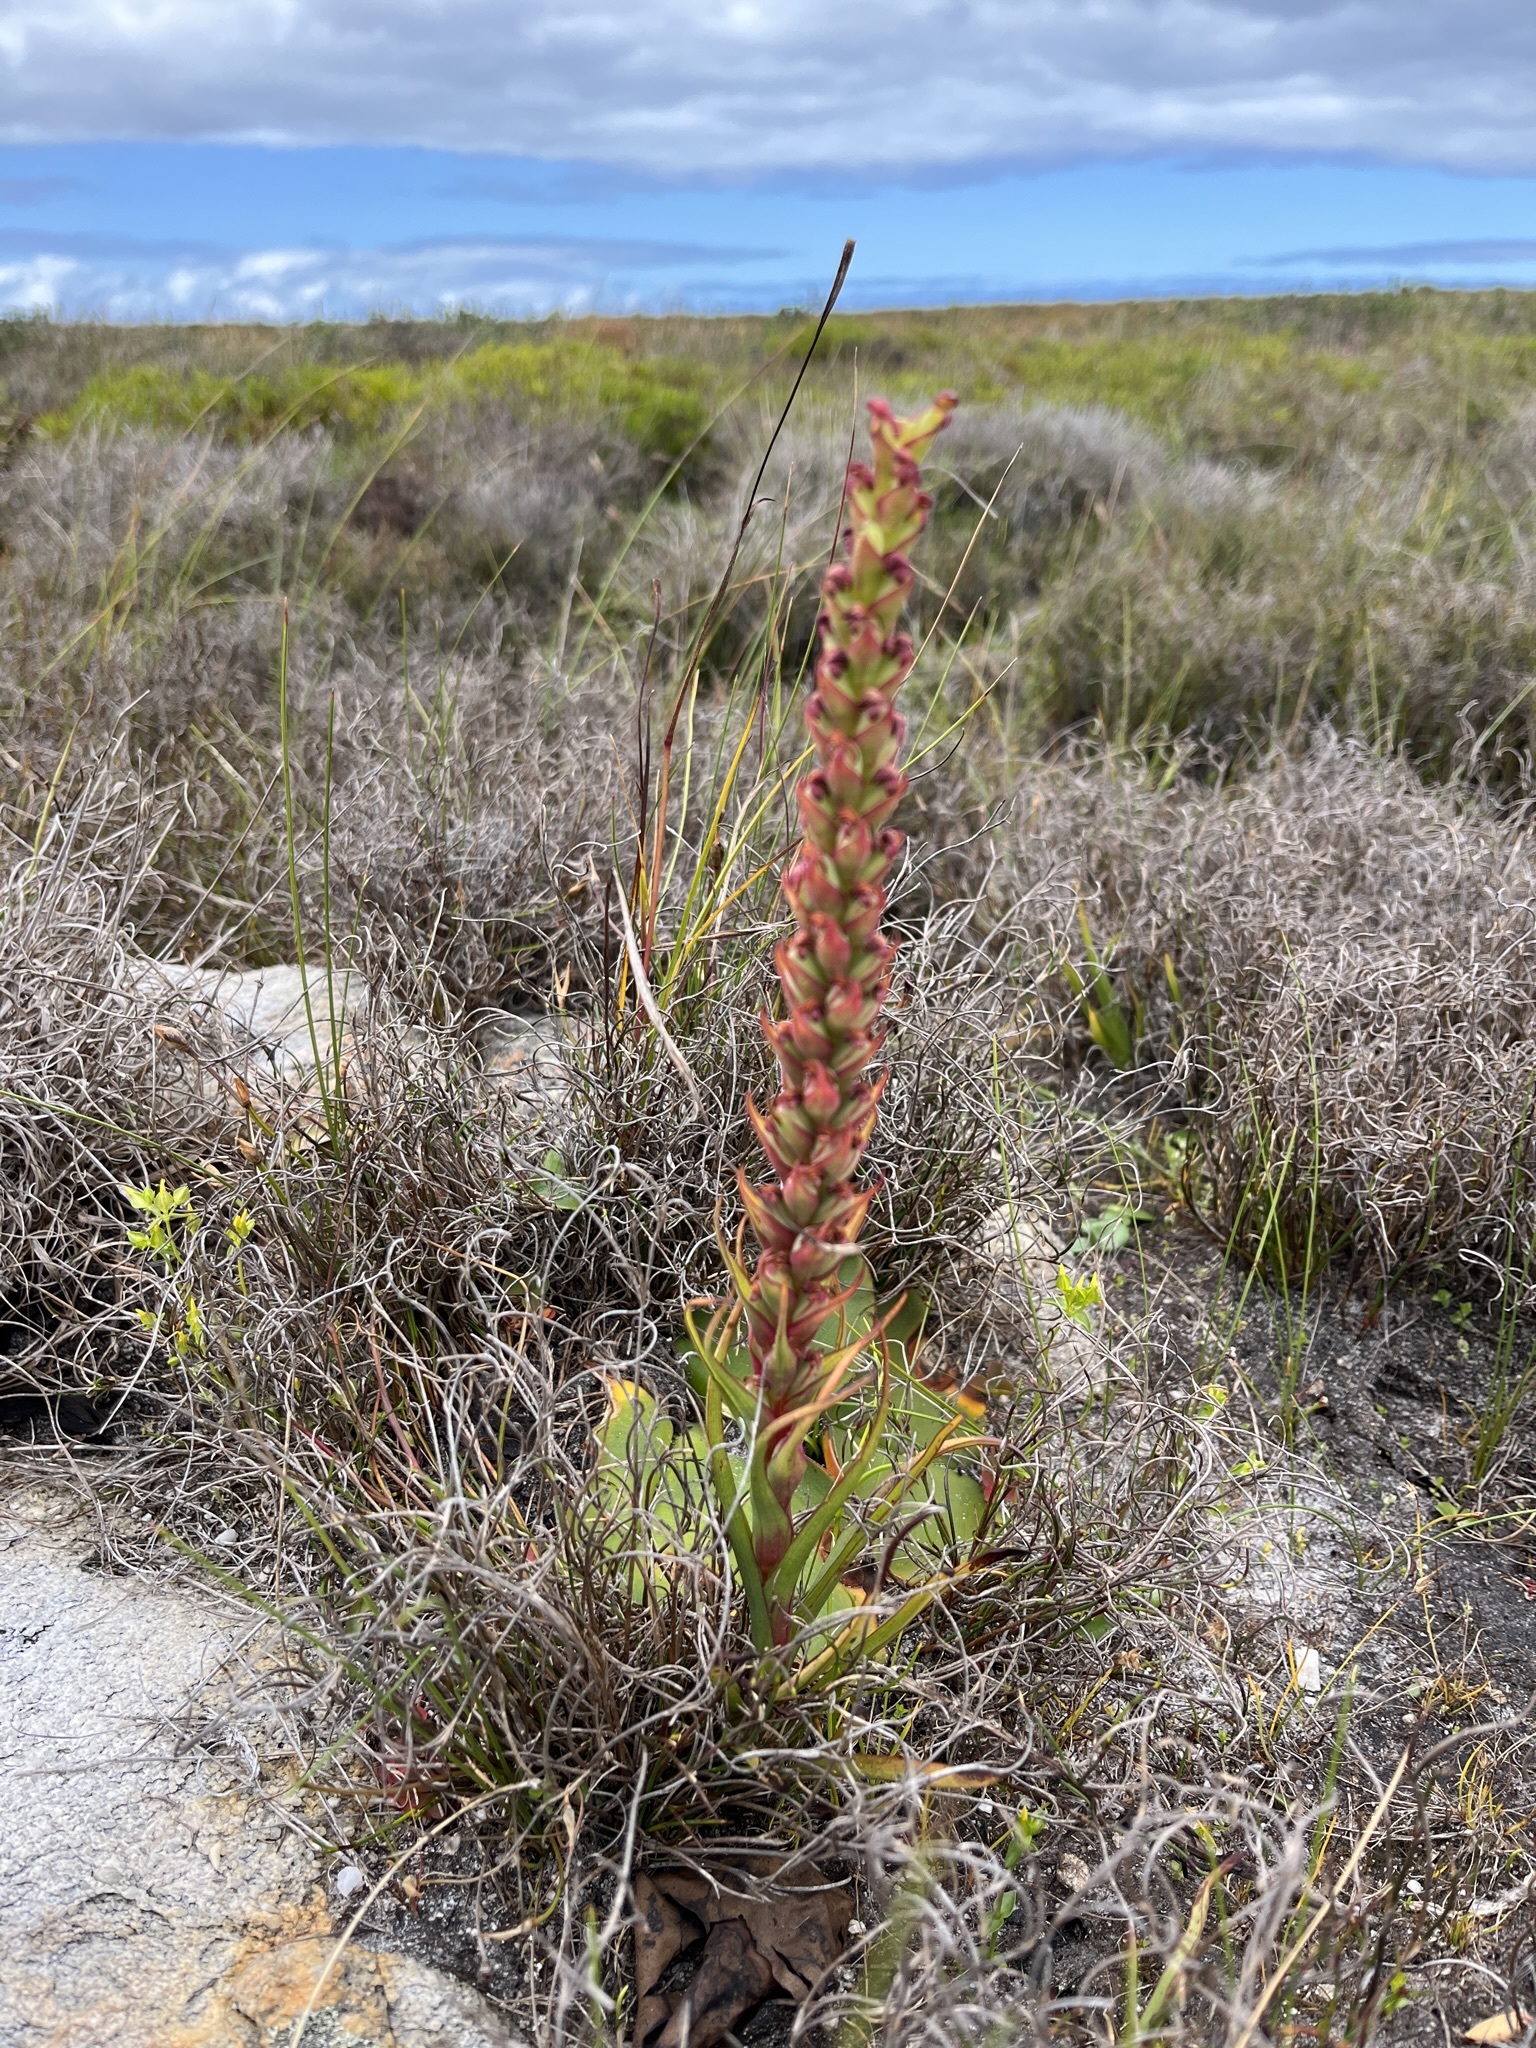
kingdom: Plantae
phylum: Tracheophyta
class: Liliopsida
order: Asparagales
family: Orchidaceae
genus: Disa
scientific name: Disa bracteata
